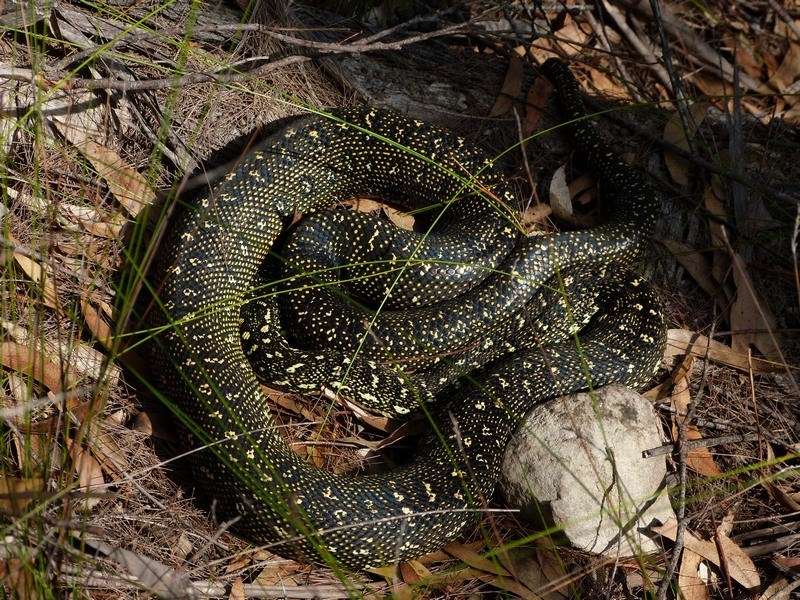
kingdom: Animalia
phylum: Chordata
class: Squamata
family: Pythonidae
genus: Morelia
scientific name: Morelia spilota
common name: Carpet python
